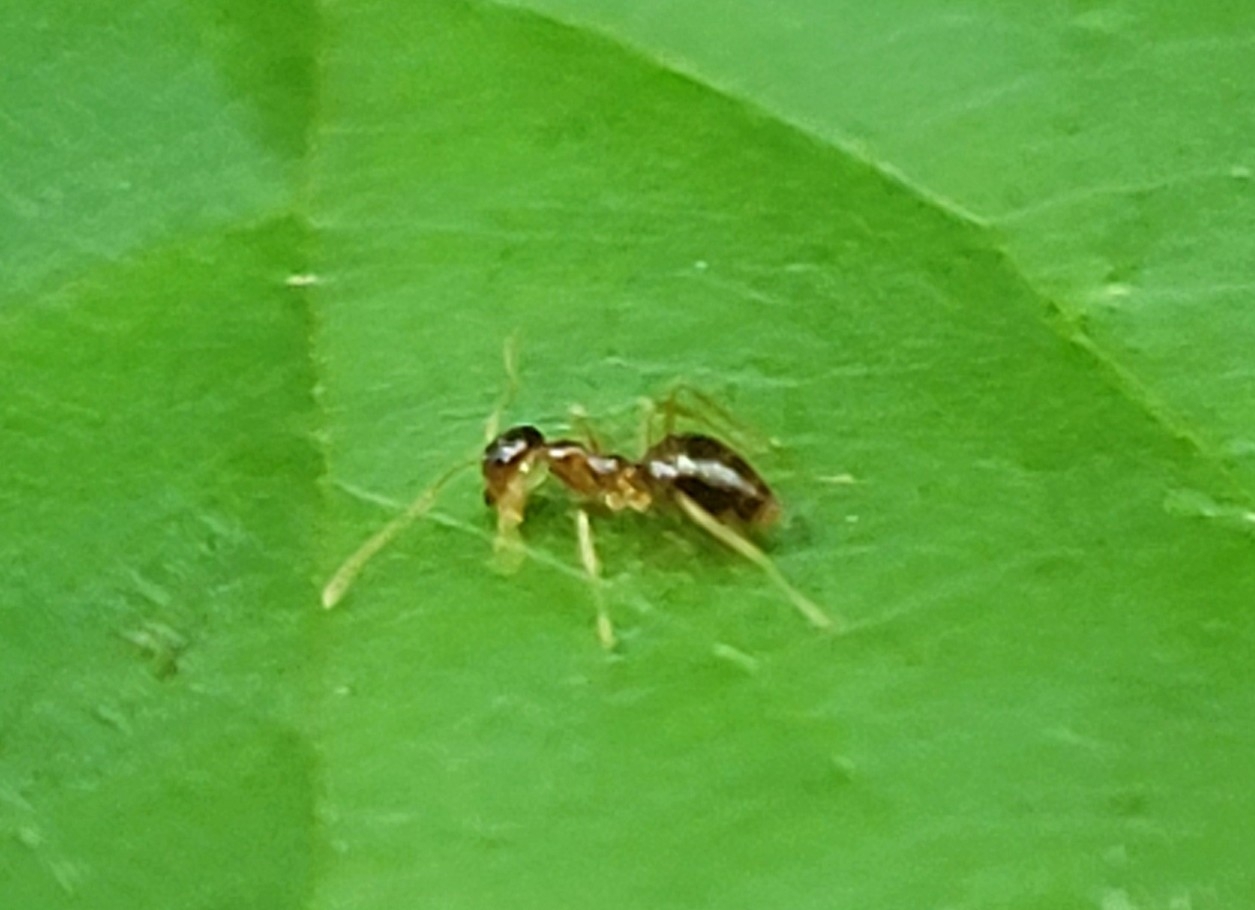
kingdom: Animalia
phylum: Arthropoda
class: Insecta
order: Hymenoptera
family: Formicidae
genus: Prenolepis
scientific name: Prenolepis imparis
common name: Small honey ant
